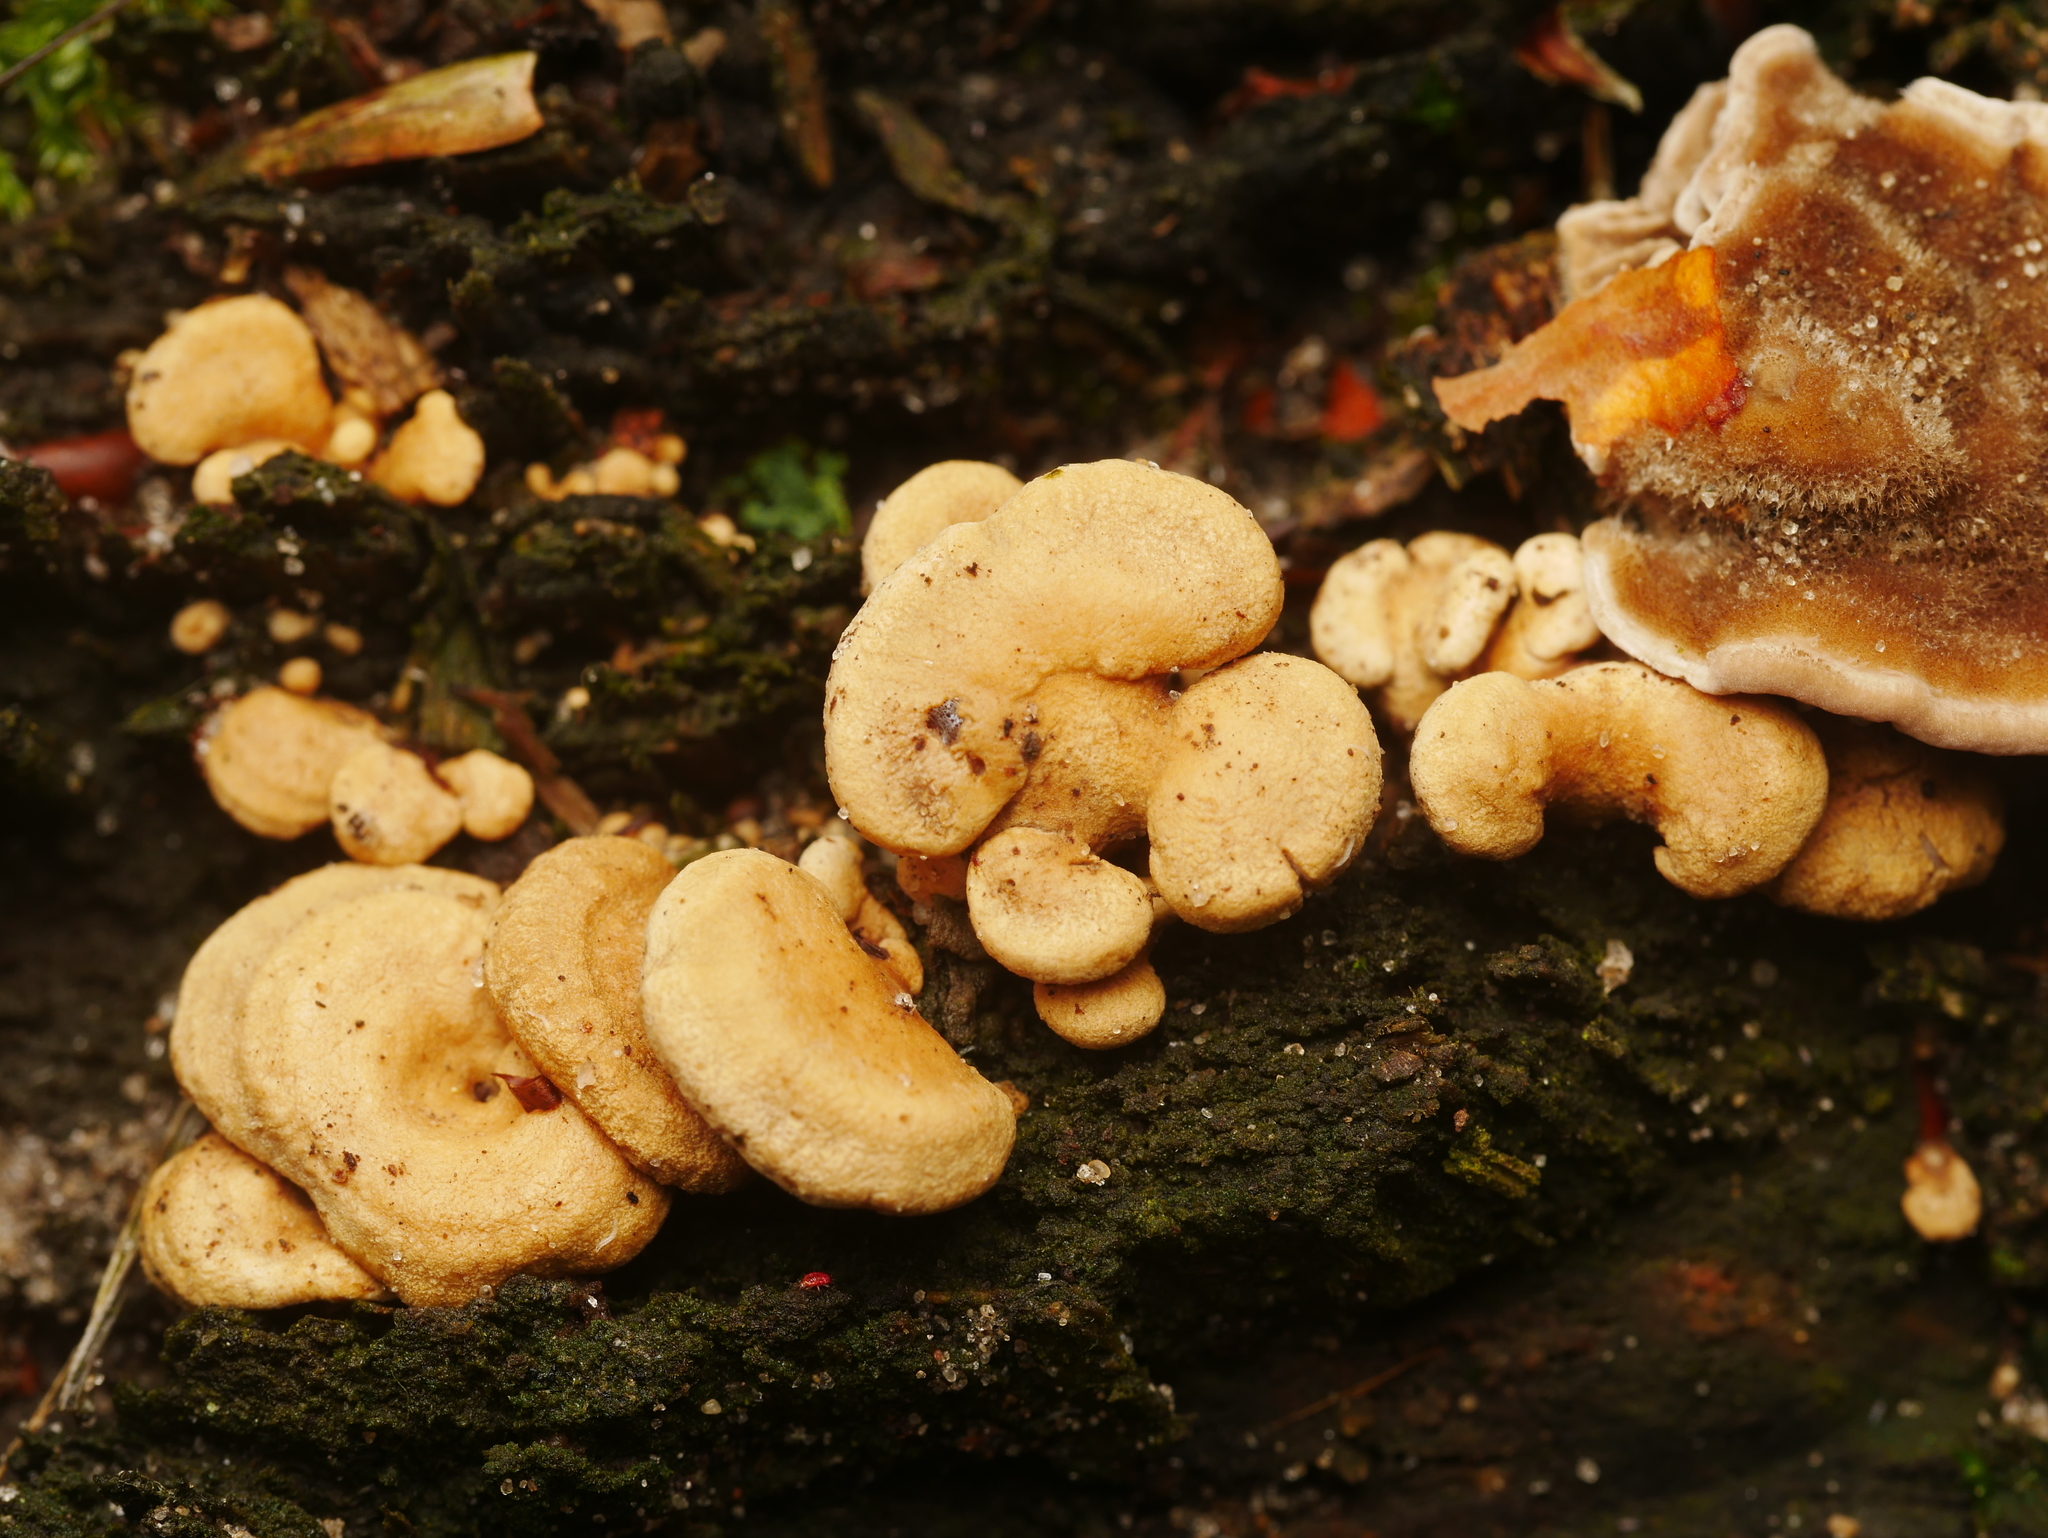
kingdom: Fungi
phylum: Basidiomycota
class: Agaricomycetes
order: Agaricales
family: Mycenaceae
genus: Panellus
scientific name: Panellus stipticus
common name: Bitter oysterling
